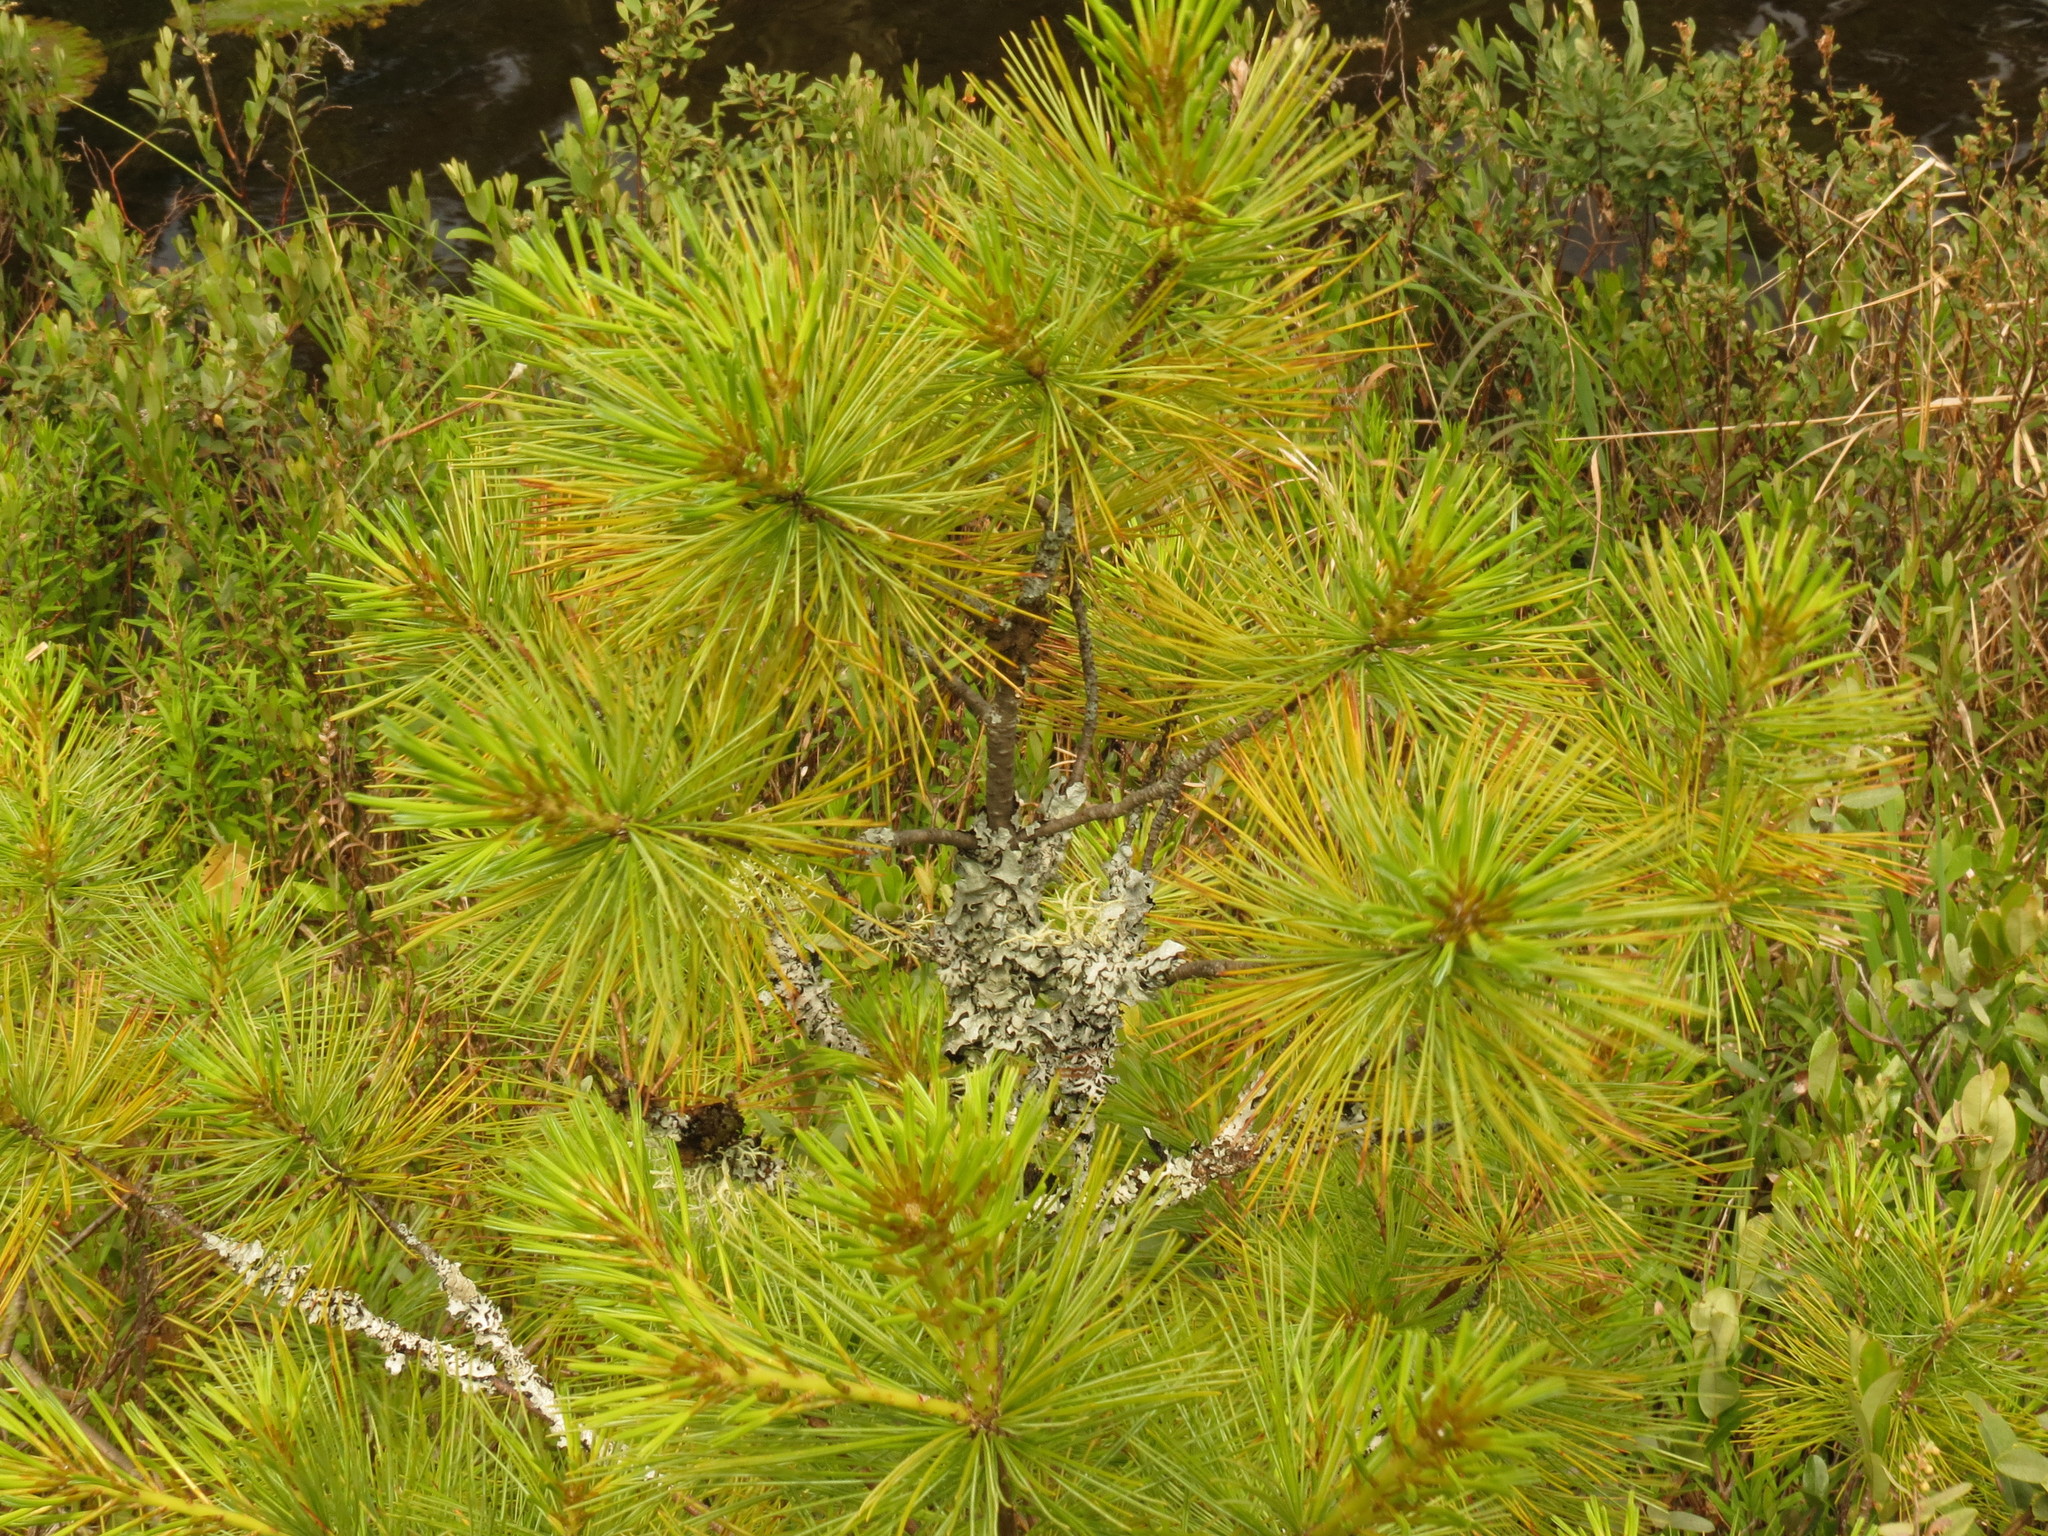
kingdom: Plantae
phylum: Tracheophyta
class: Pinopsida
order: Pinales
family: Pinaceae
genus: Pinus
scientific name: Pinus strobus
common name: Weymouth pine
